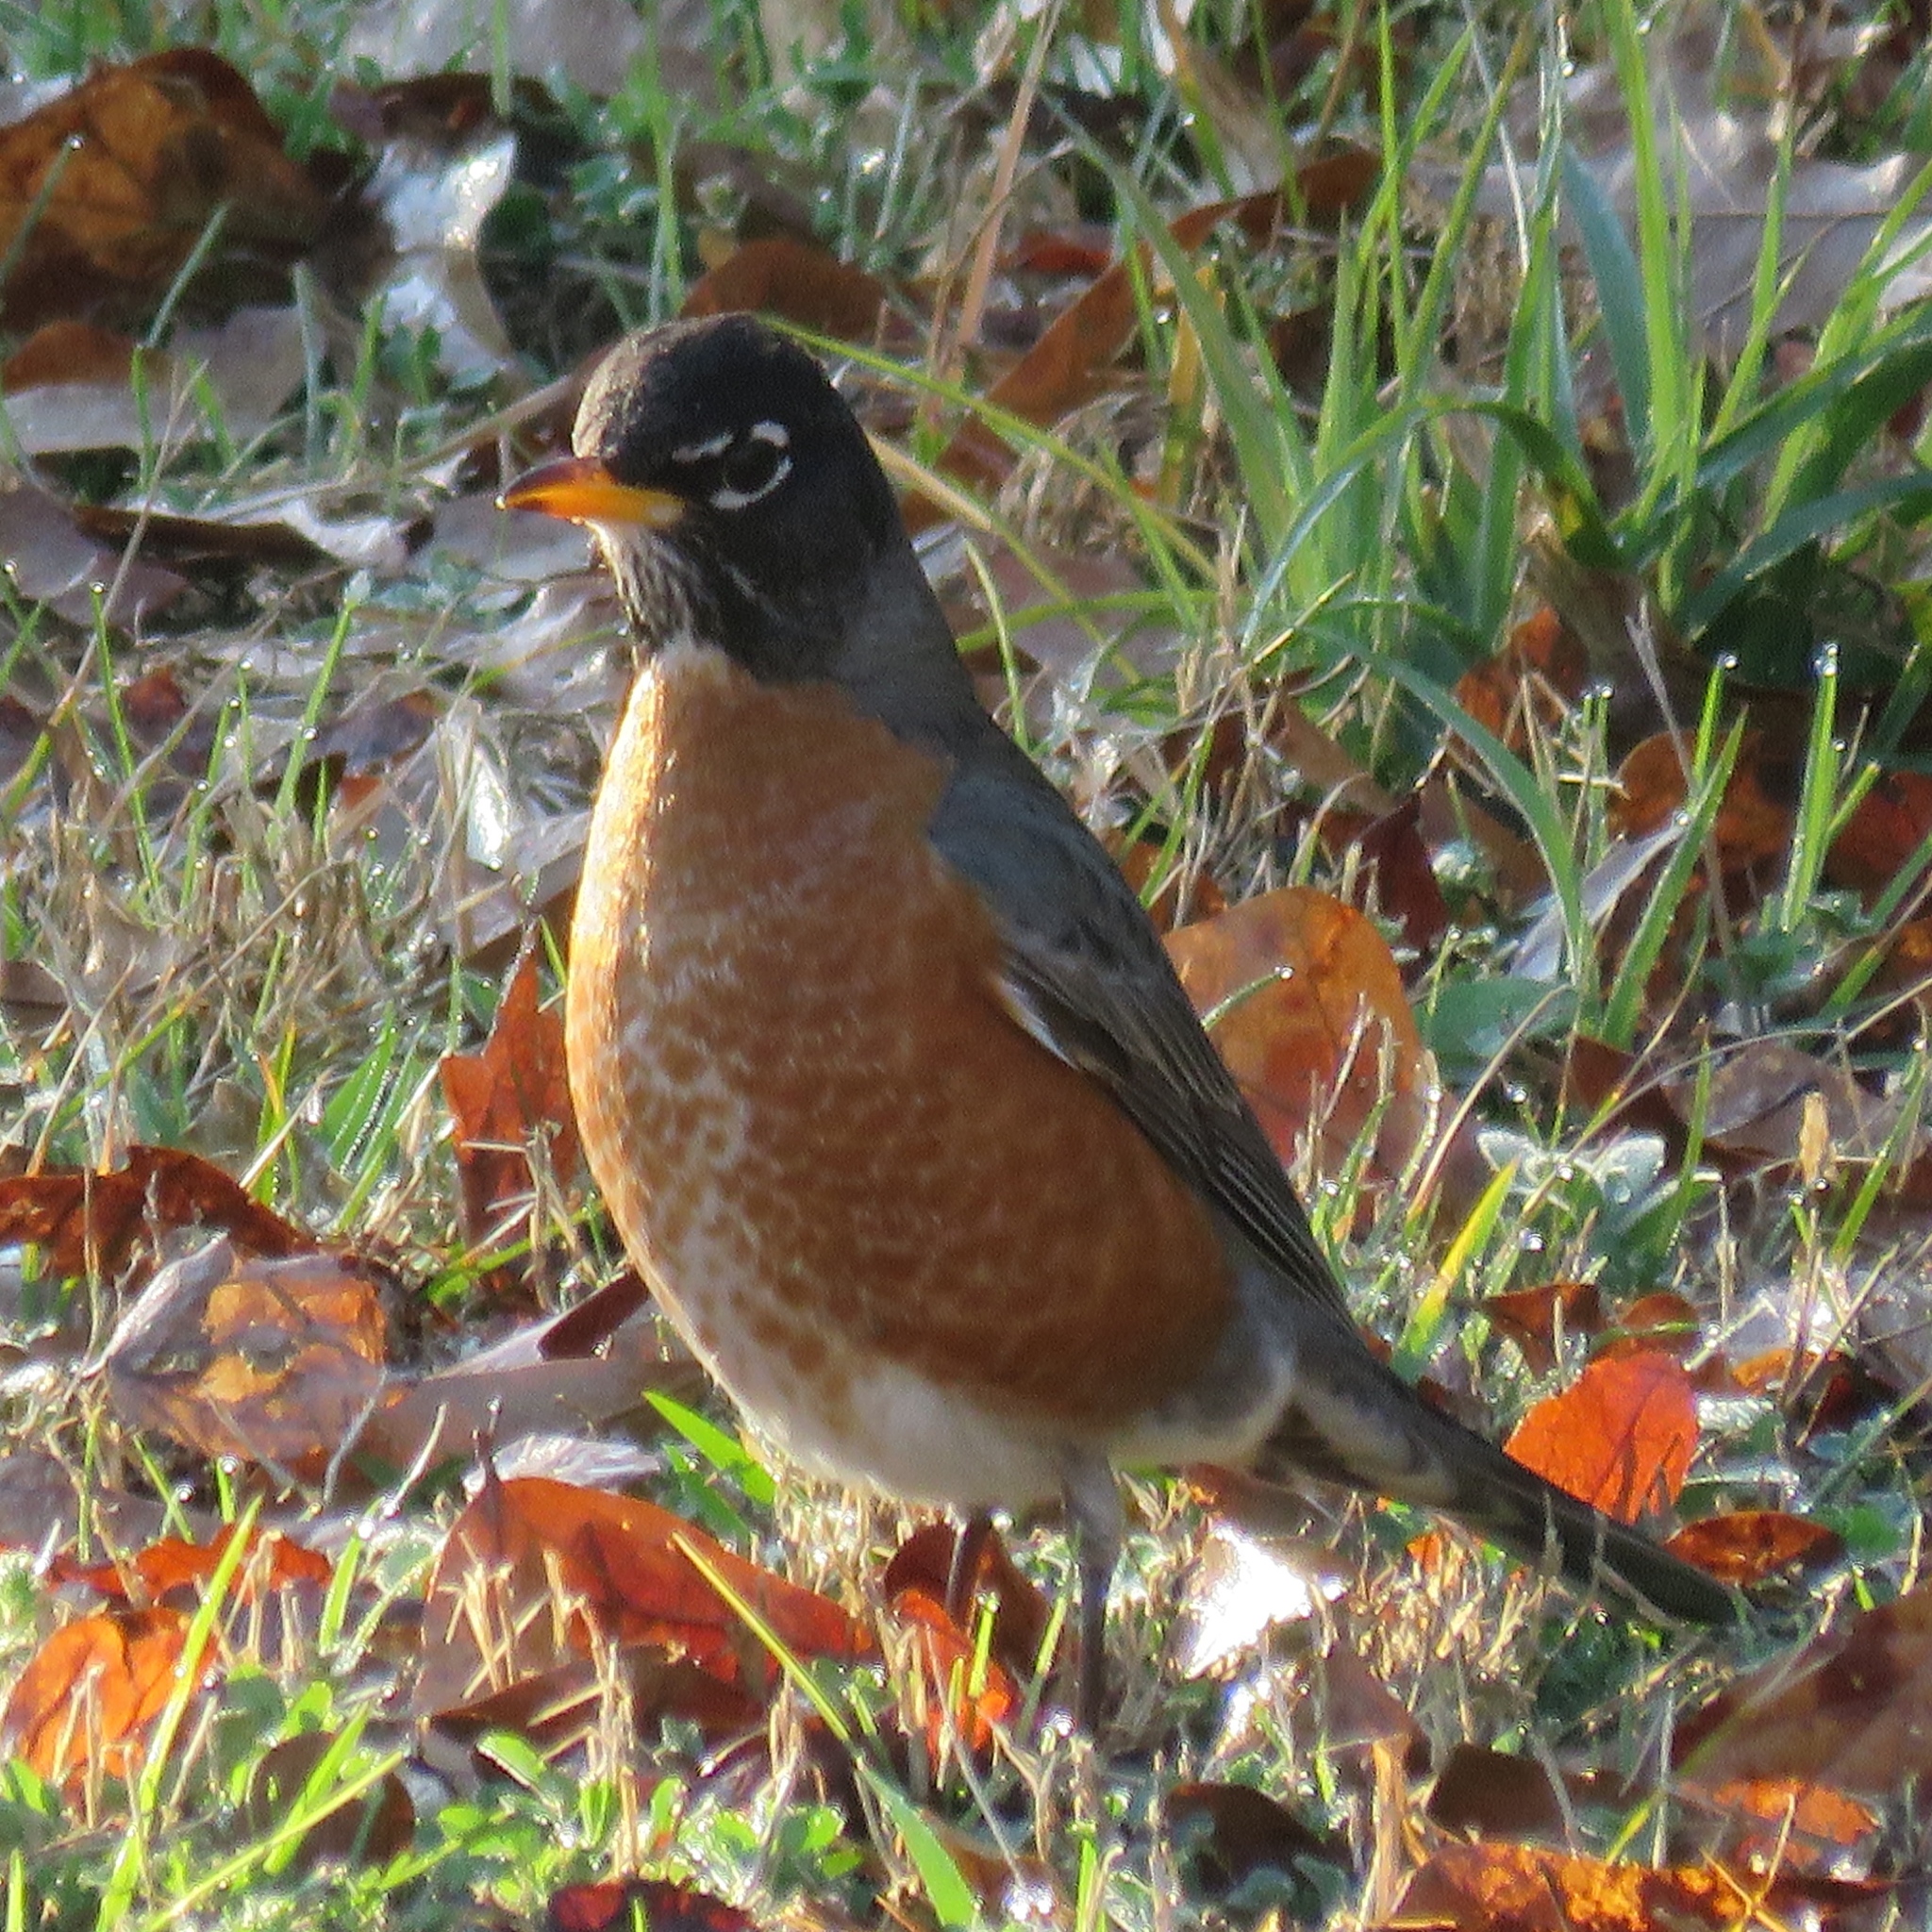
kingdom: Animalia
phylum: Chordata
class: Aves
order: Passeriformes
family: Turdidae
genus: Turdus
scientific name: Turdus migratorius
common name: American robin
